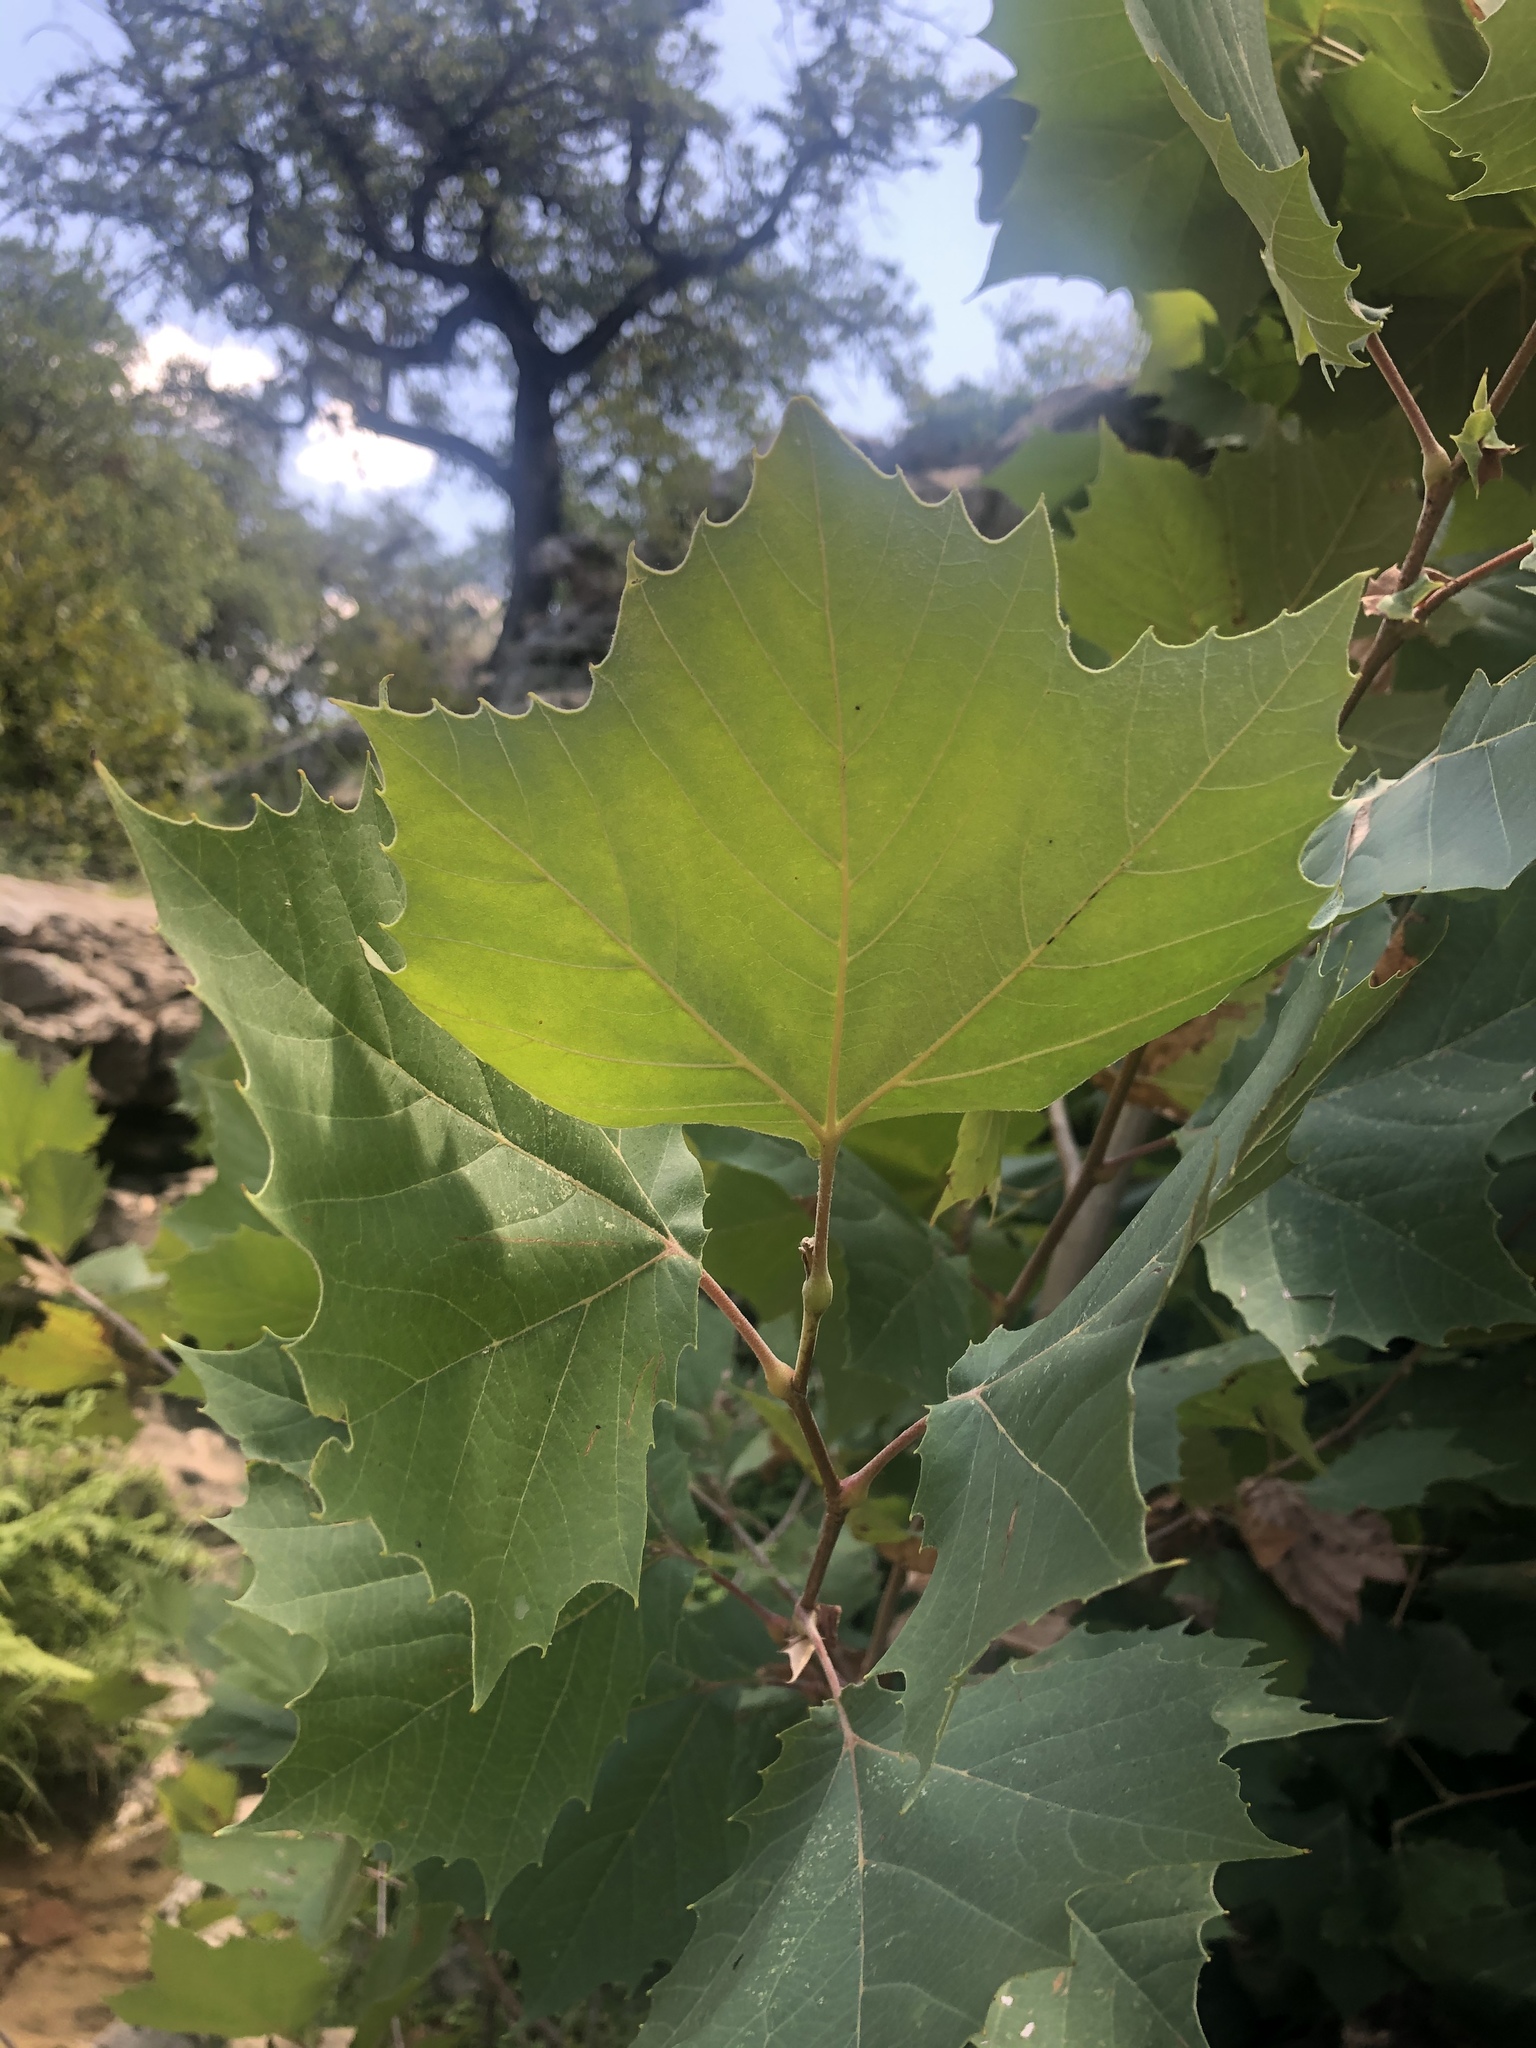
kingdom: Plantae
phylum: Tracheophyta
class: Magnoliopsida
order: Proteales
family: Platanaceae
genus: Platanus
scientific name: Platanus occidentalis
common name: American sycamore
